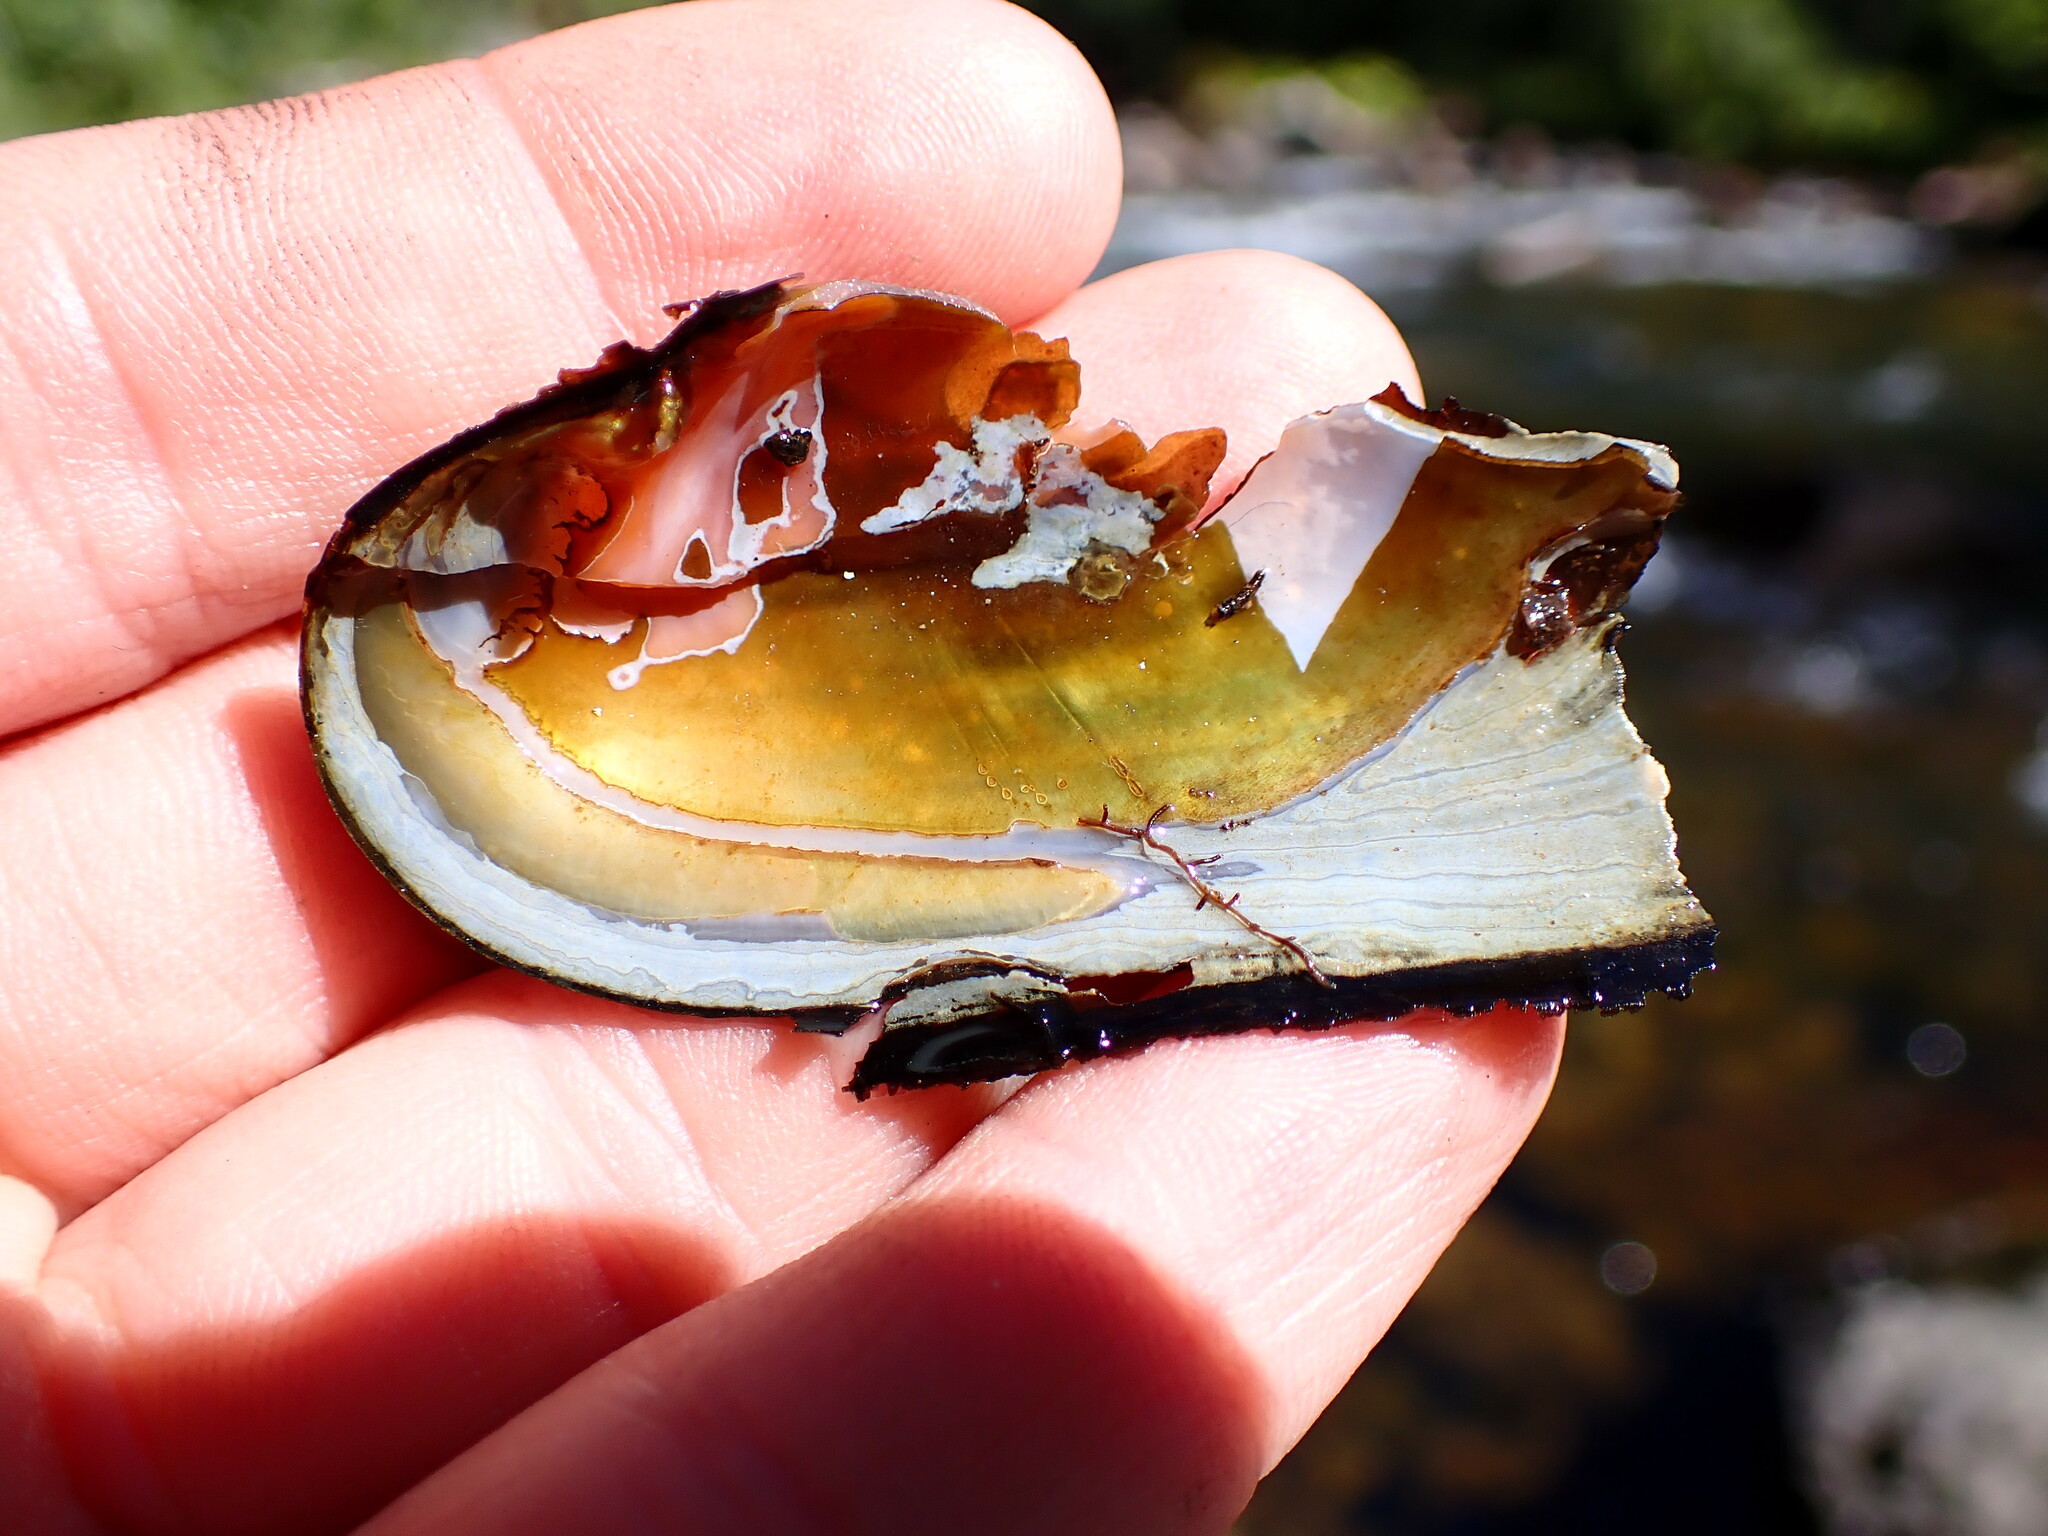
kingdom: Animalia
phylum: Mollusca
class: Bivalvia
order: Unionida
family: Margaritiferidae
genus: Margaritifera
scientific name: Margaritifera falcata
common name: Western pearlshell
